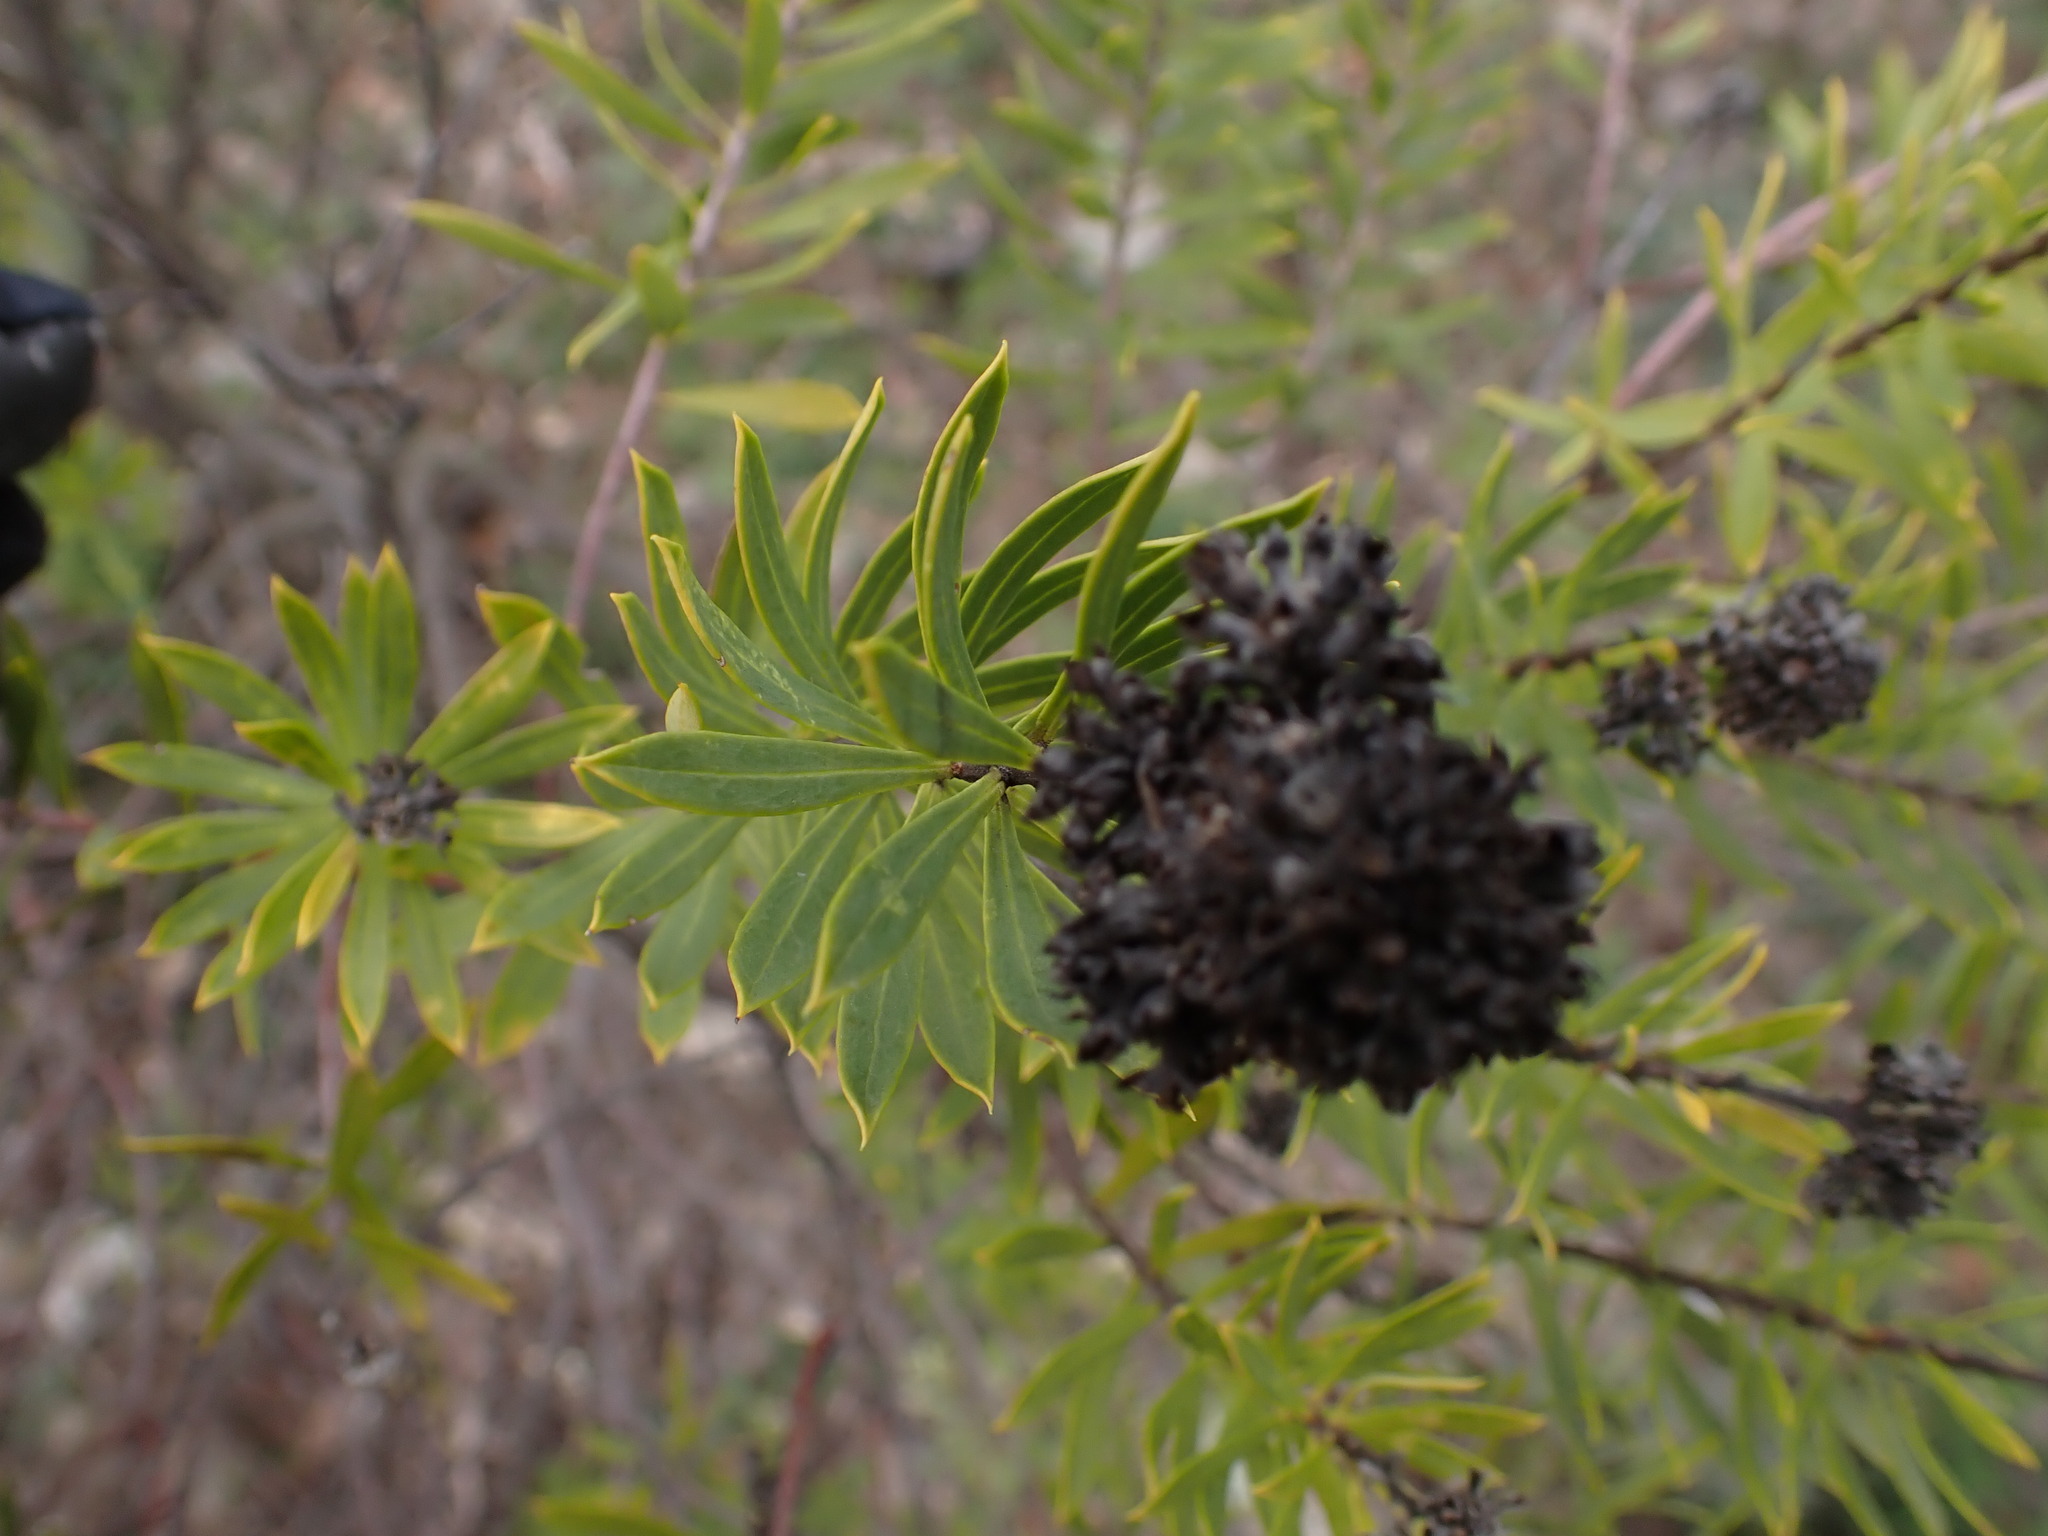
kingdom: Plantae
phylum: Tracheophyta
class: Magnoliopsida
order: Malvales
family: Thymelaeaceae
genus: Daphne
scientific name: Daphne gnidium
